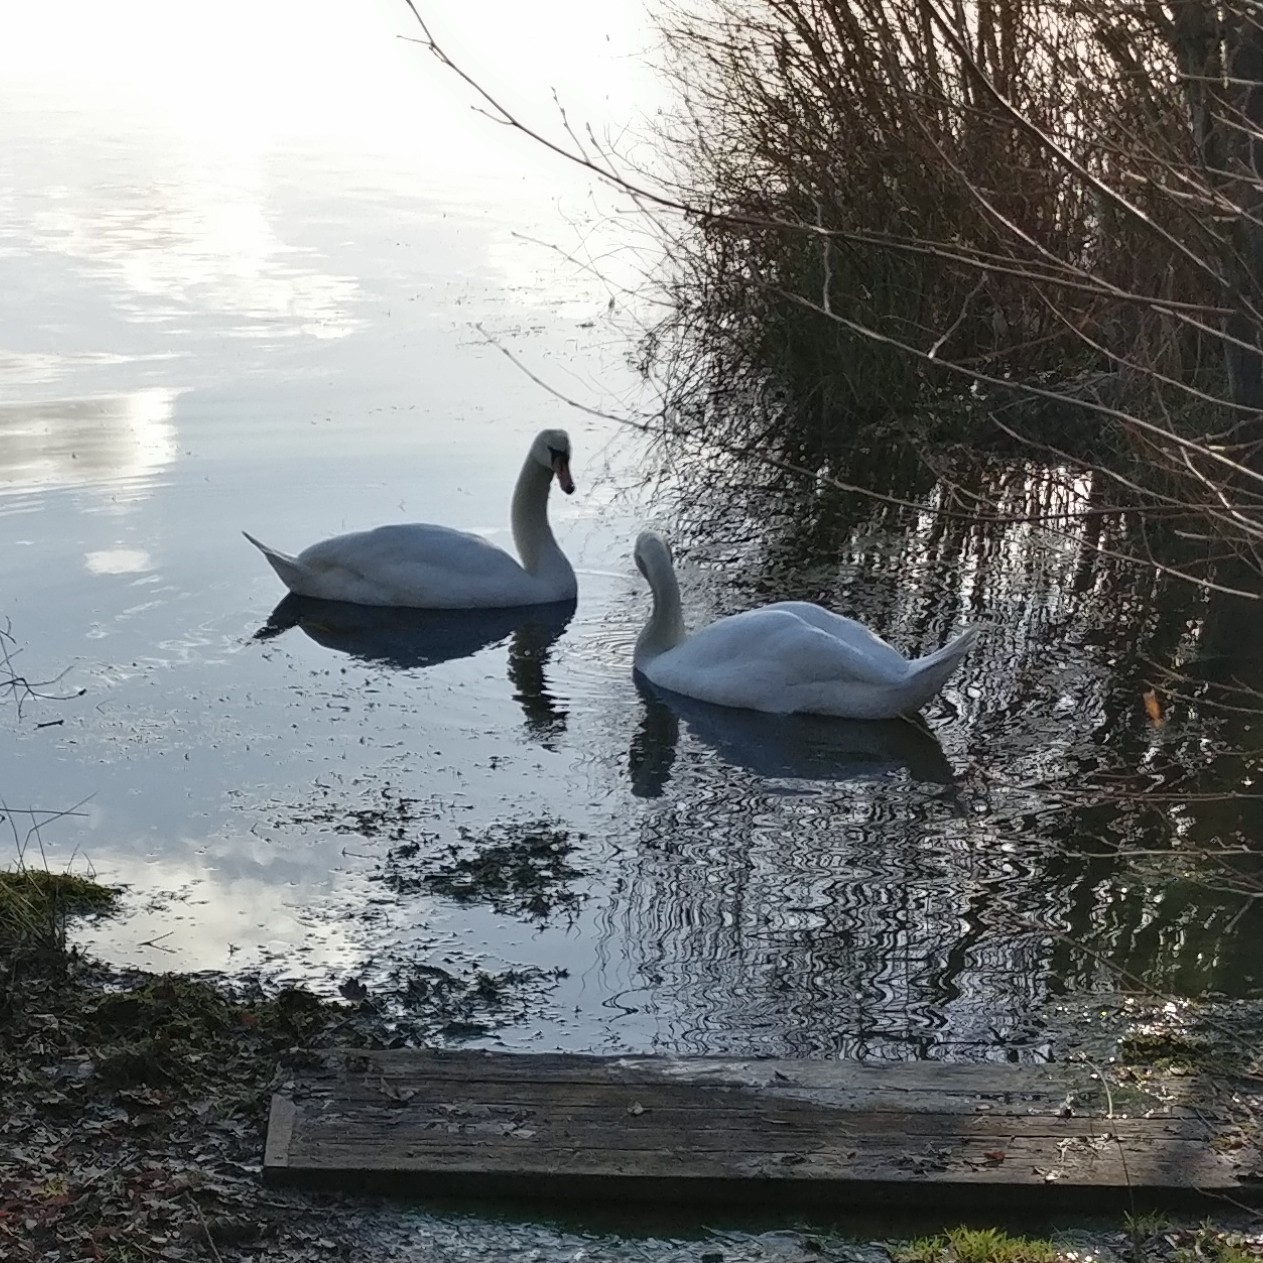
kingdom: Animalia
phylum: Chordata
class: Aves
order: Anseriformes
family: Anatidae
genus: Cygnus
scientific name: Cygnus olor
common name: Mute swan
